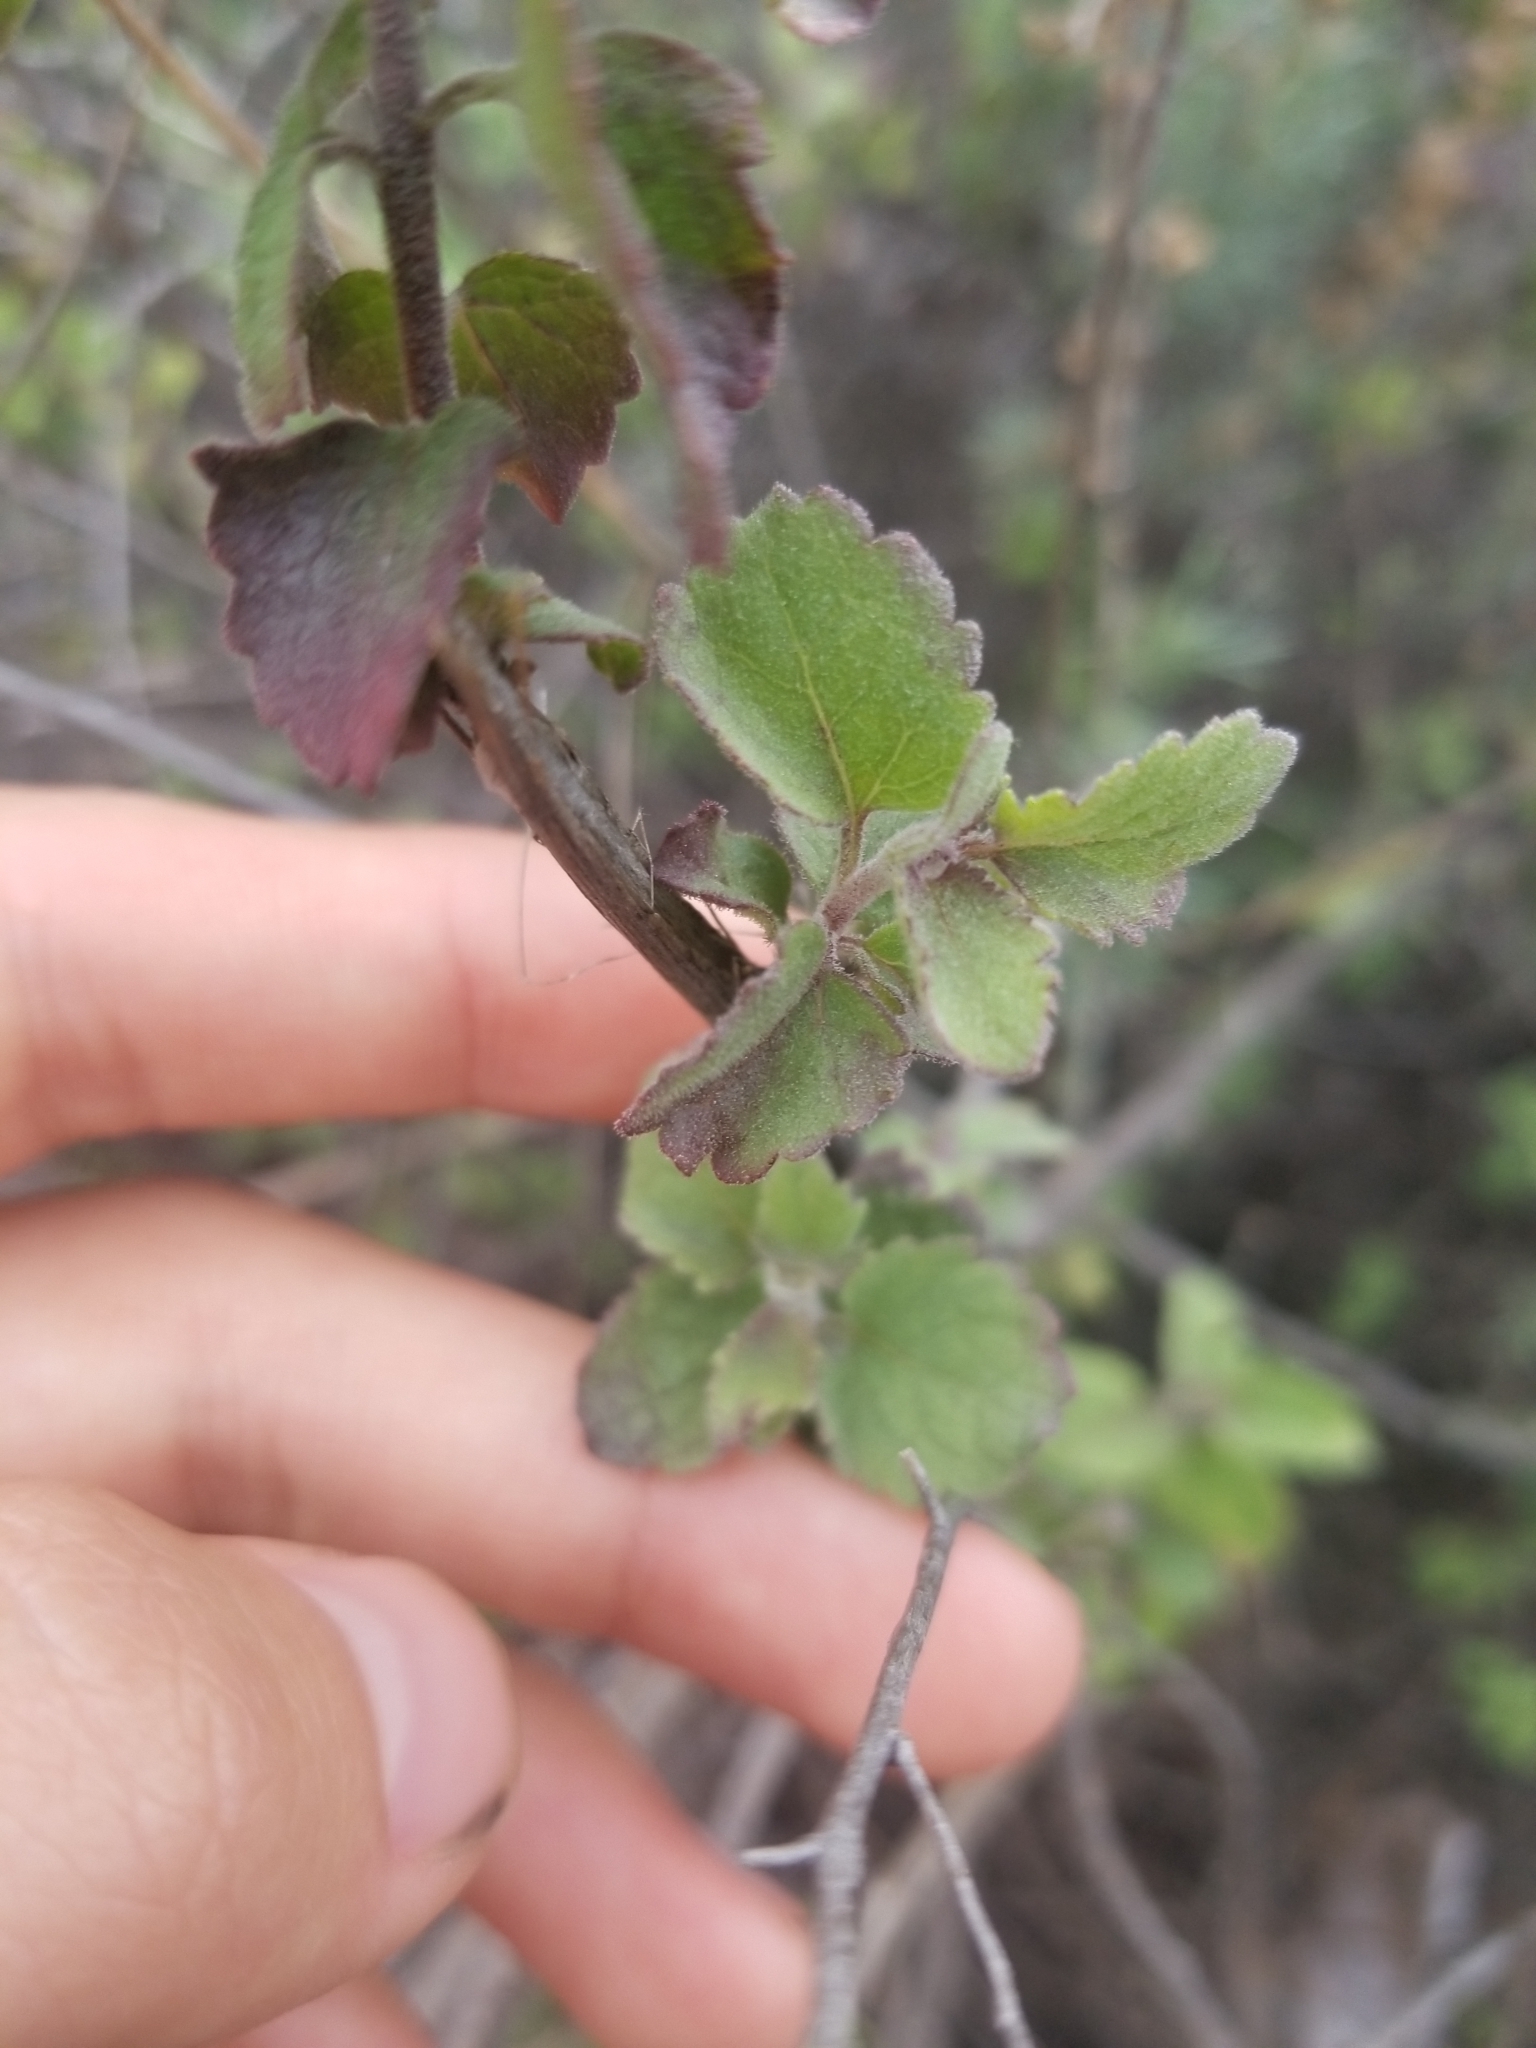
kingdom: Plantae
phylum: Tracheophyta
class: Magnoliopsida
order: Asterales
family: Asteraceae
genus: Brickellia
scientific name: Brickellia californica
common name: California brickellbush
